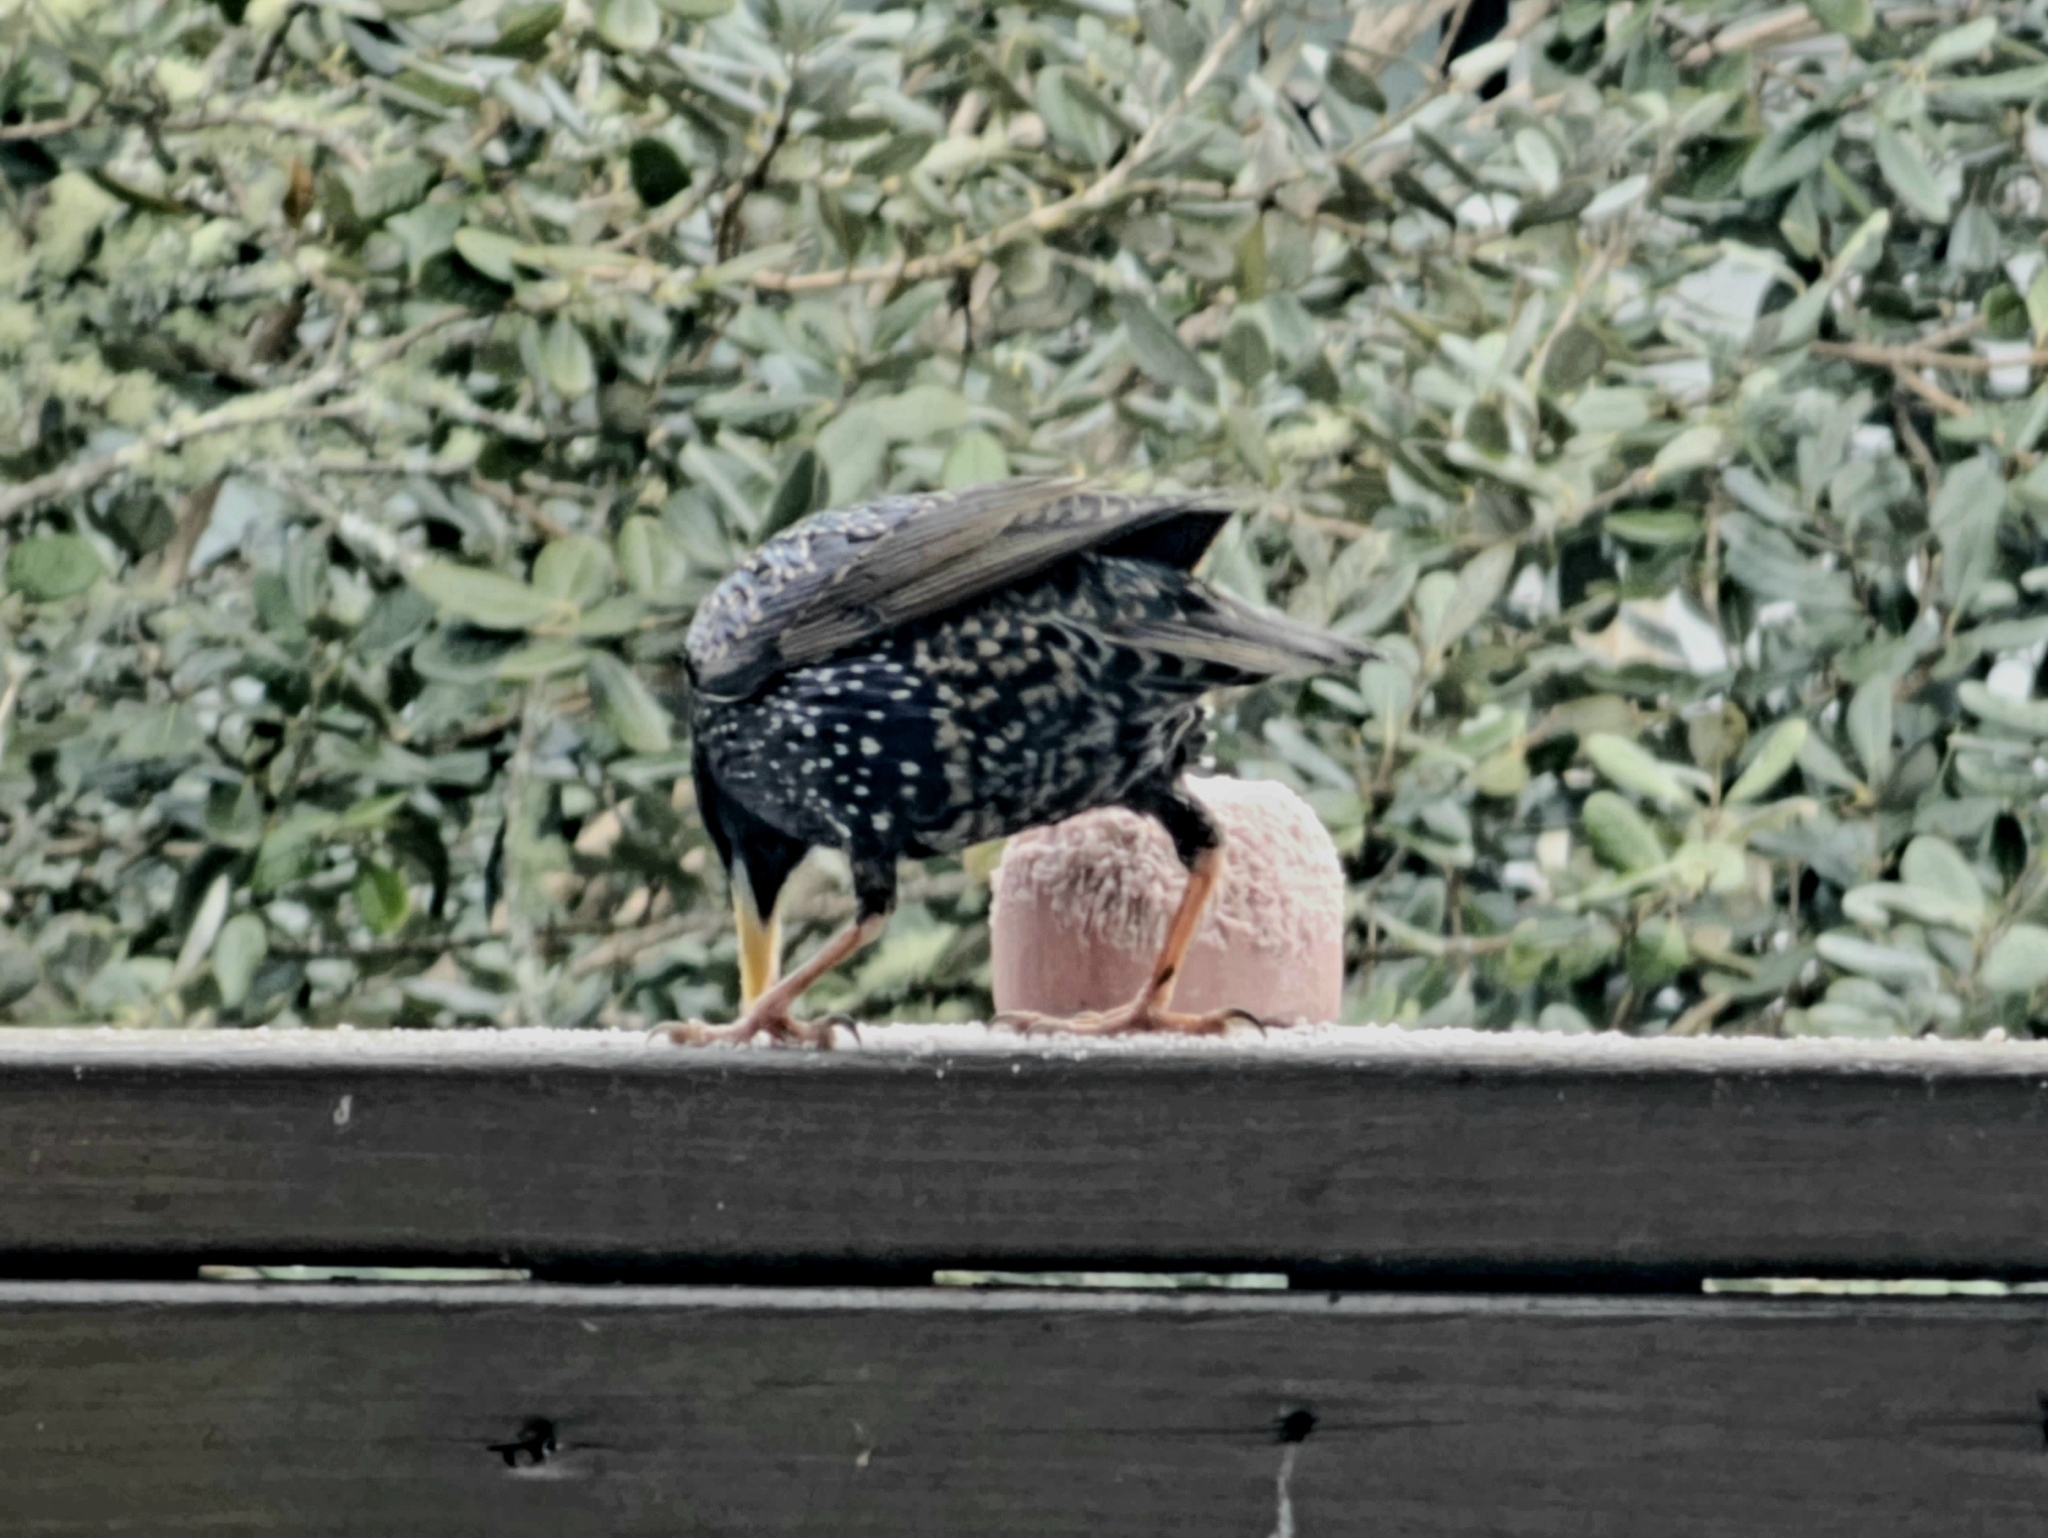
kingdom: Animalia
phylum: Chordata
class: Aves
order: Passeriformes
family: Sturnidae
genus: Sturnus
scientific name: Sturnus vulgaris
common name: Common starling
